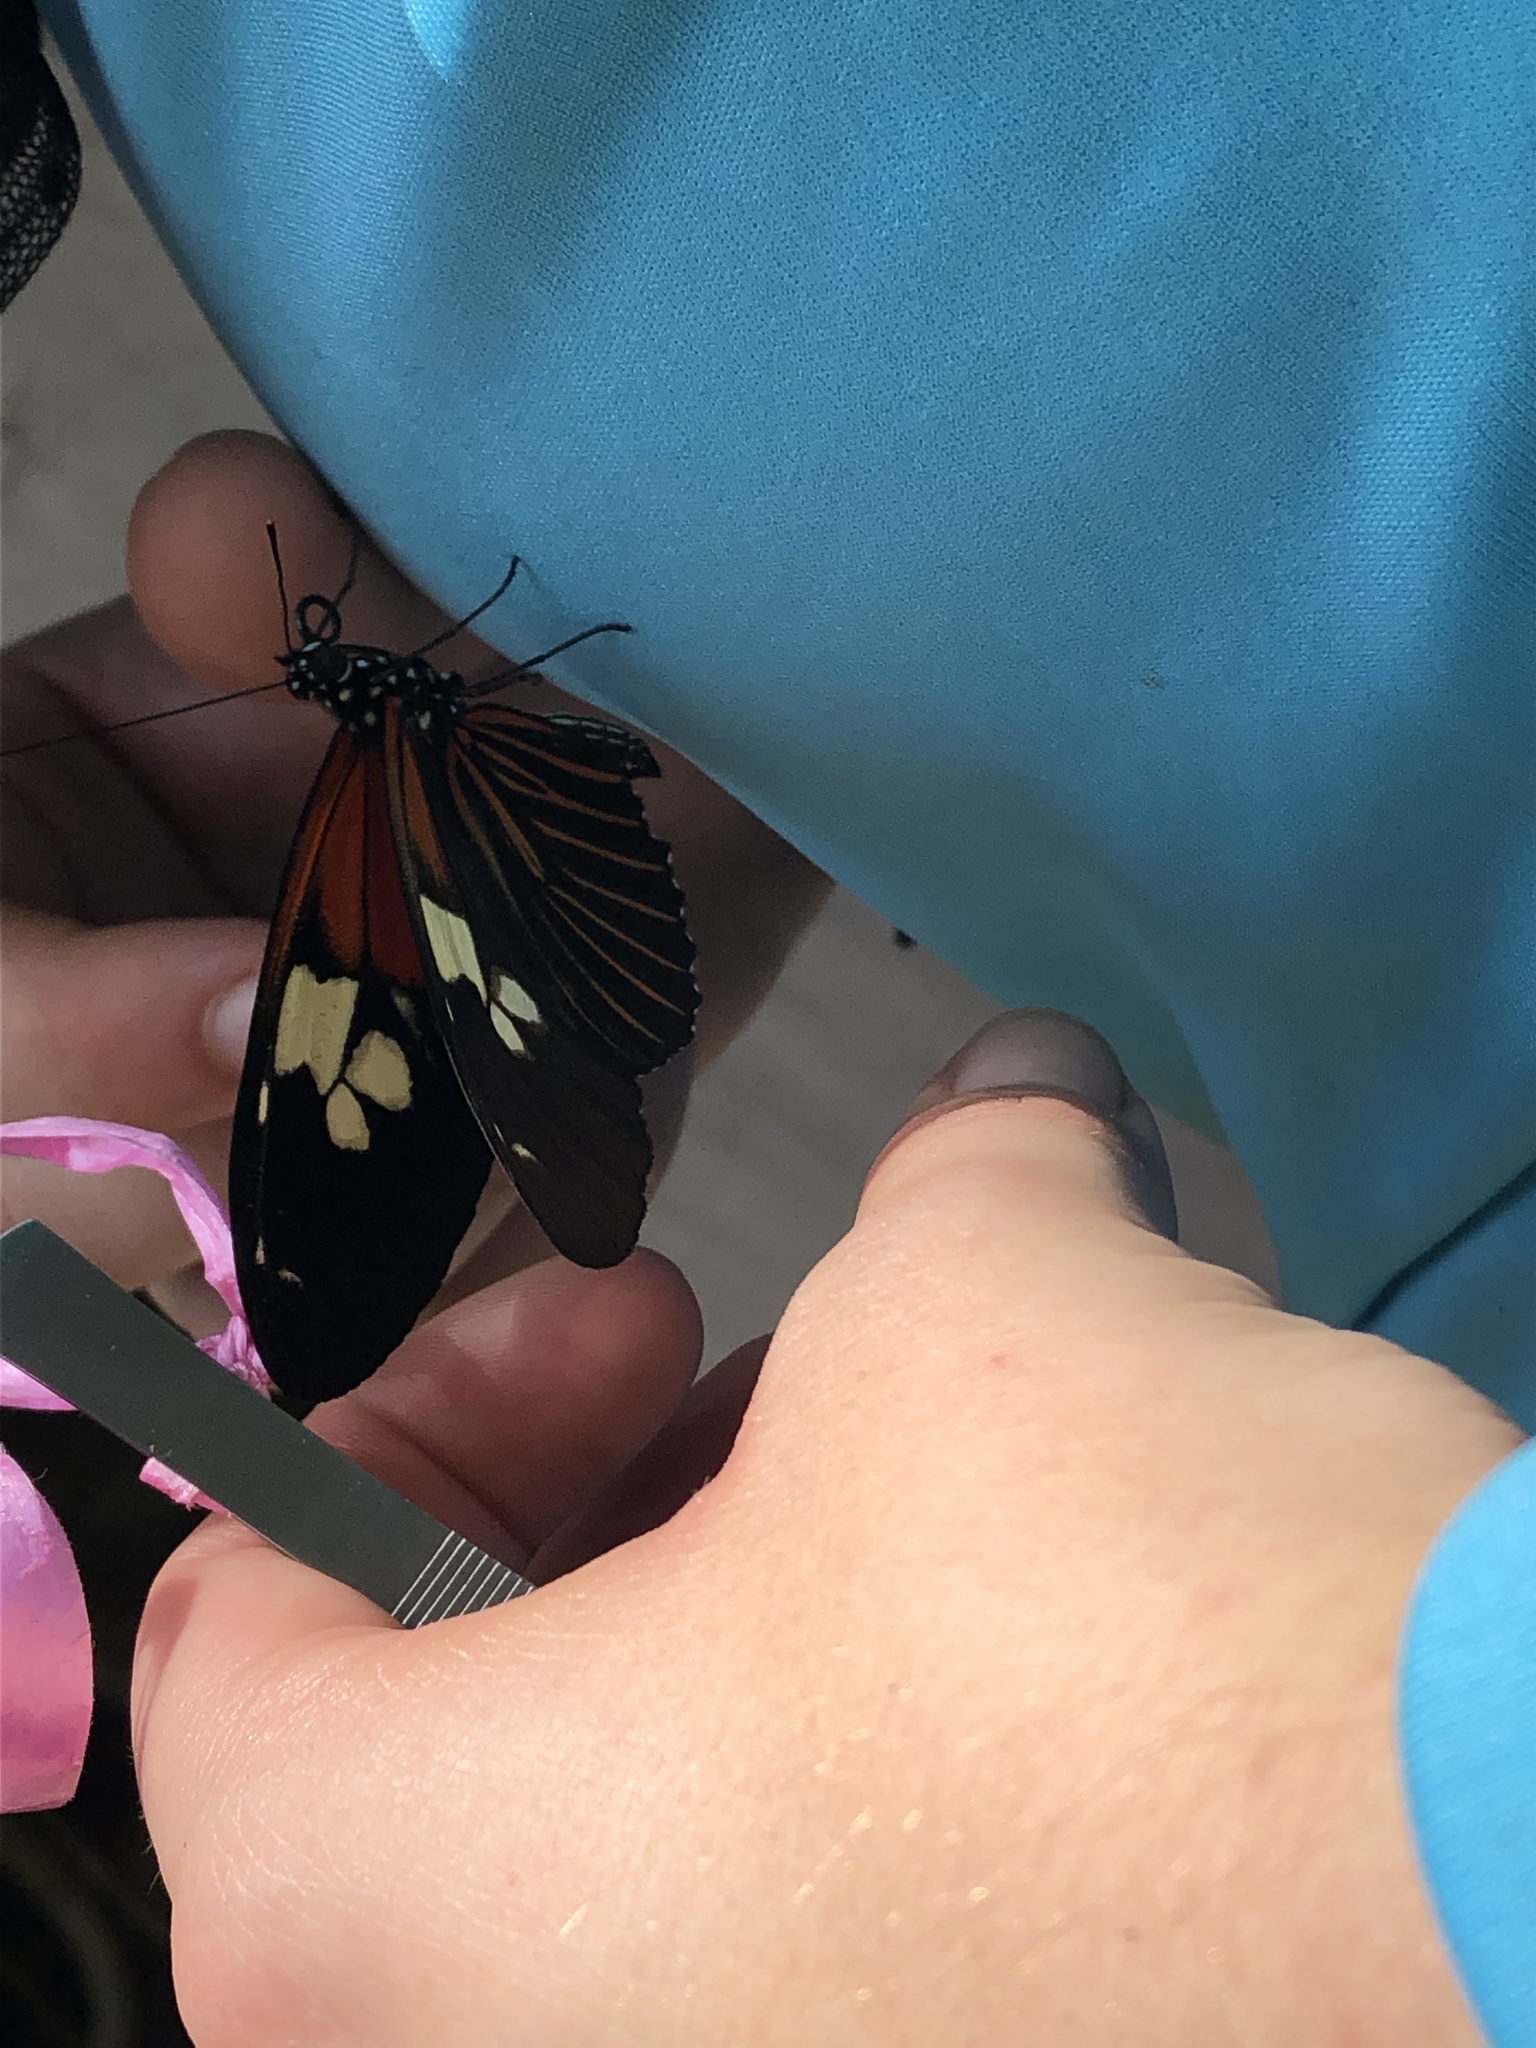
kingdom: Animalia
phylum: Arthropoda
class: Insecta
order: Lepidoptera
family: Nymphalidae
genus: Heliconius
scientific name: Heliconius burneyi
